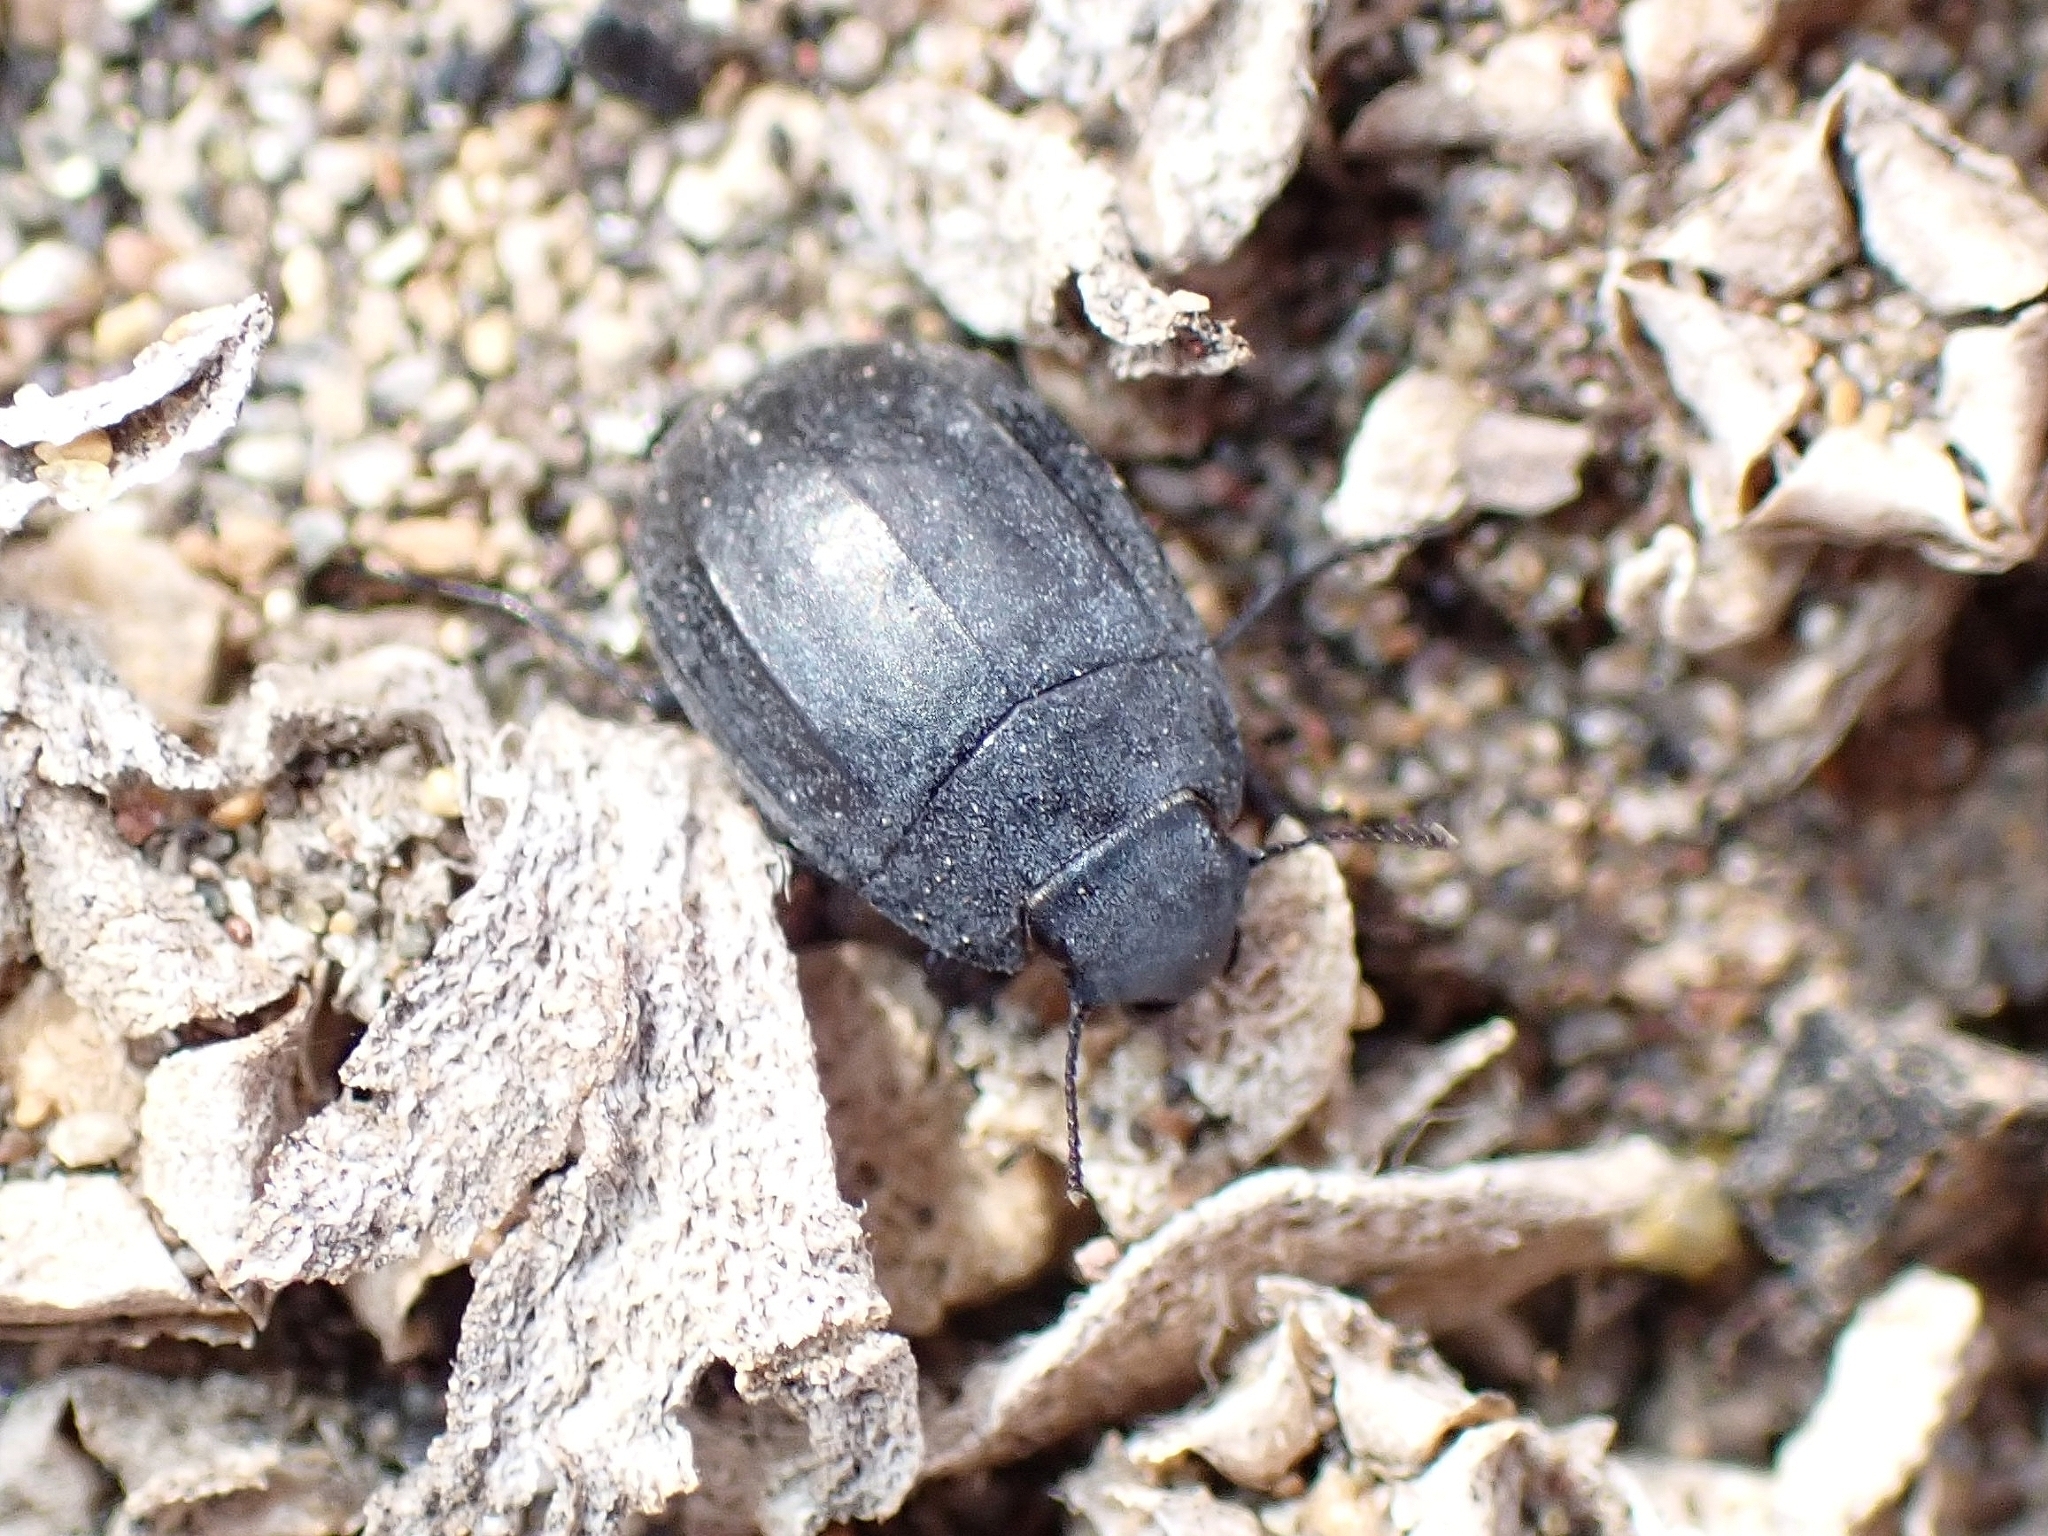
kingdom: Animalia
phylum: Arthropoda
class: Insecta
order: Coleoptera
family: Tenebrionidae
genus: Zophosis
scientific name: Zophosis bicarinata
